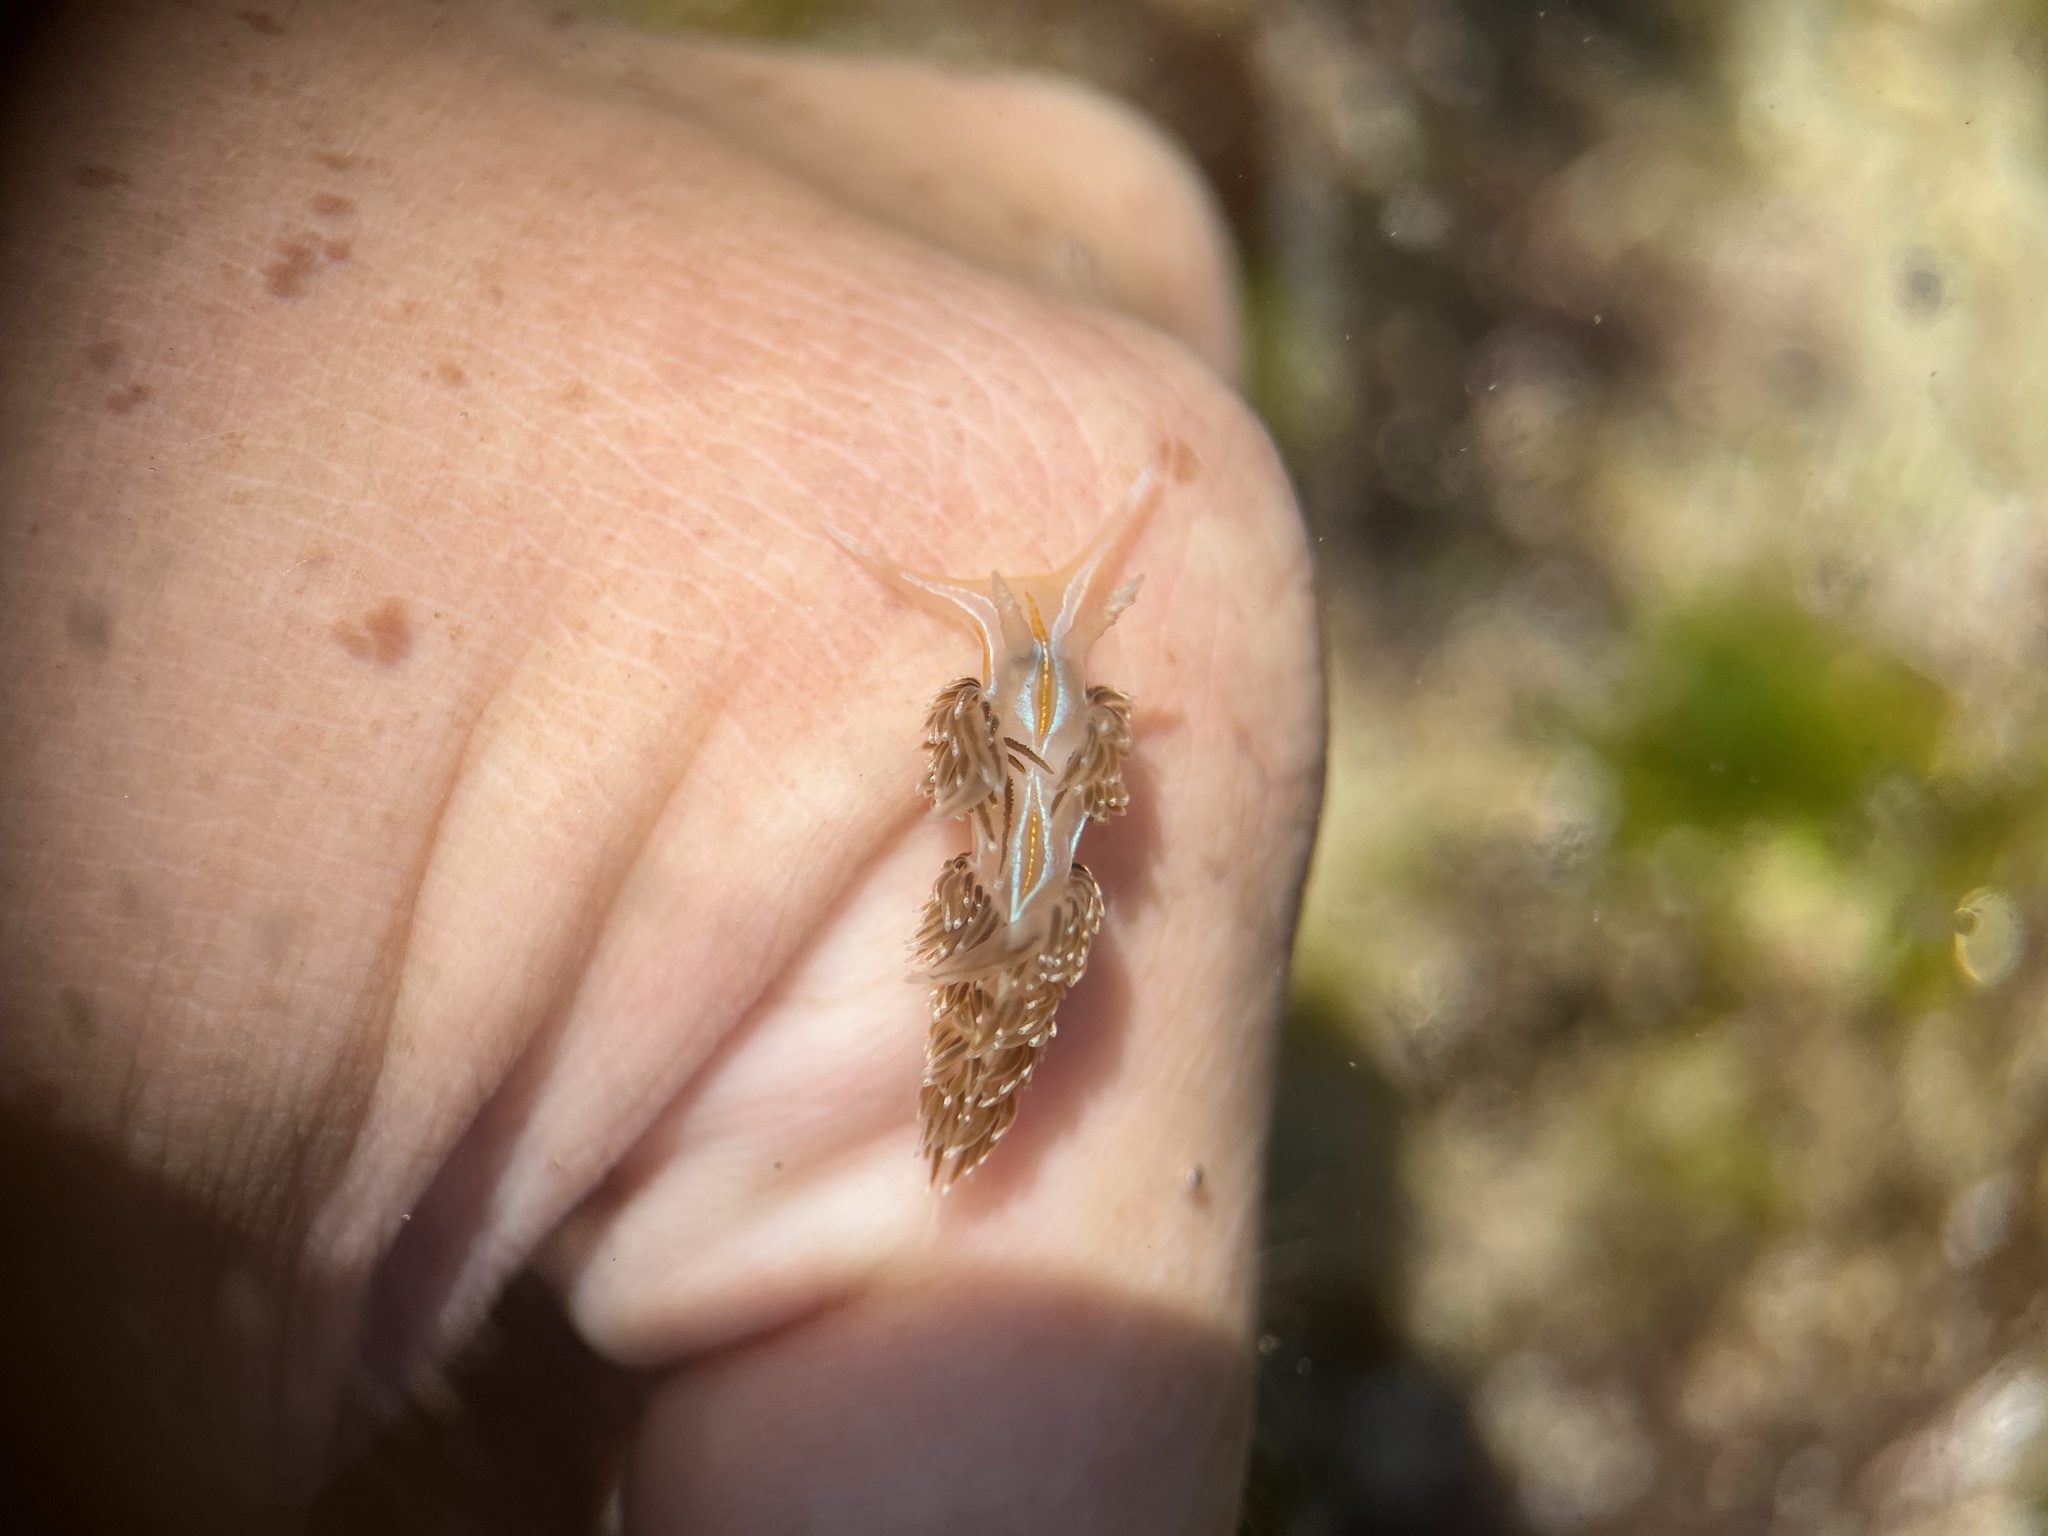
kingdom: Animalia
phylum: Mollusca
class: Gastropoda
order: Nudibranchia
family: Myrrhinidae
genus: Hermissenda
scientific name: Hermissenda opalescens
